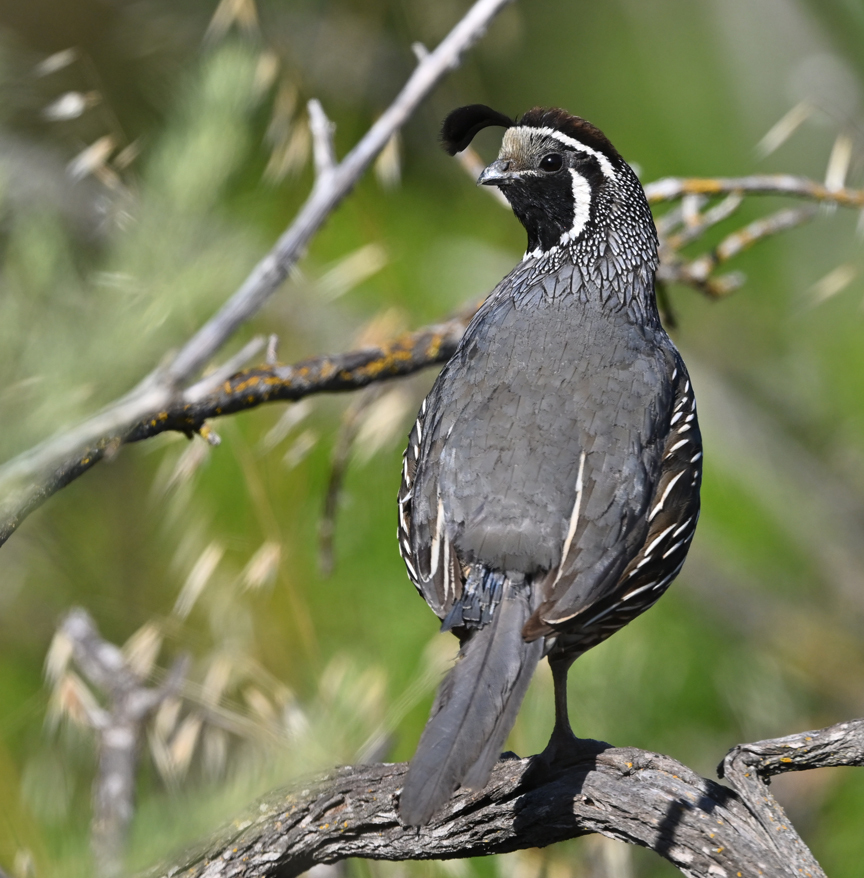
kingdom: Animalia
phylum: Chordata
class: Aves
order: Galliformes
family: Odontophoridae
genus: Callipepla
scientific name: Callipepla californica
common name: California quail
